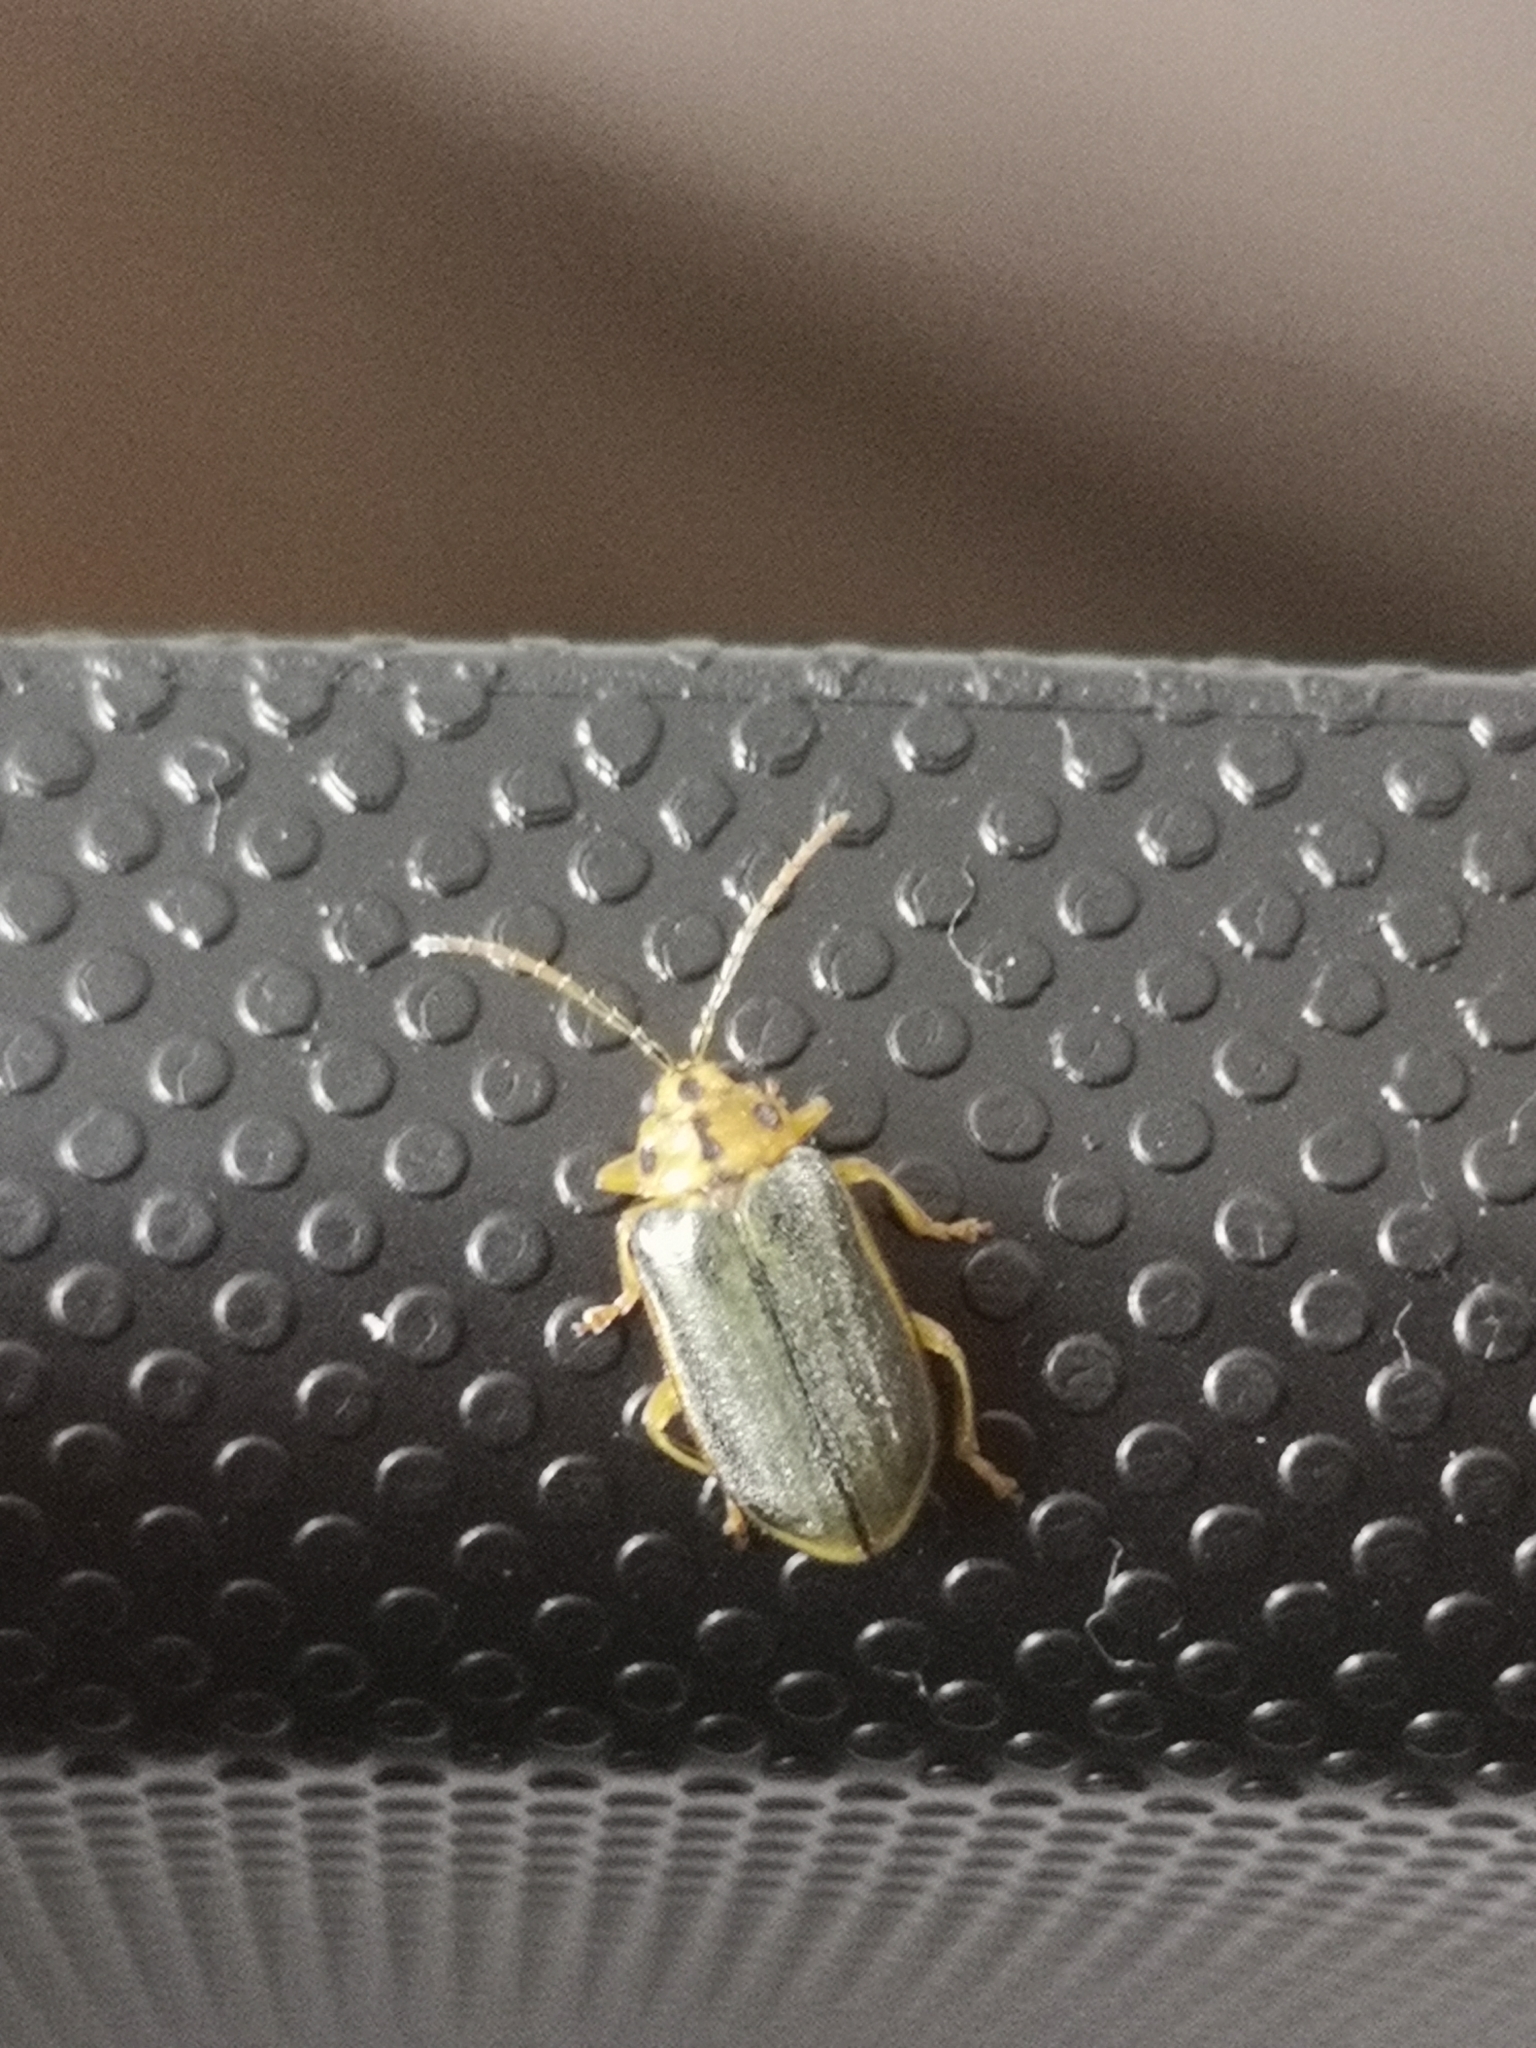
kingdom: Animalia
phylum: Arthropoda
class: Insecta
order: Coleoptera
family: Chrysomelidae
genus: Xanthogaleruca
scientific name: Xanthogaleruca luteola
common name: Elm leaf beetle
